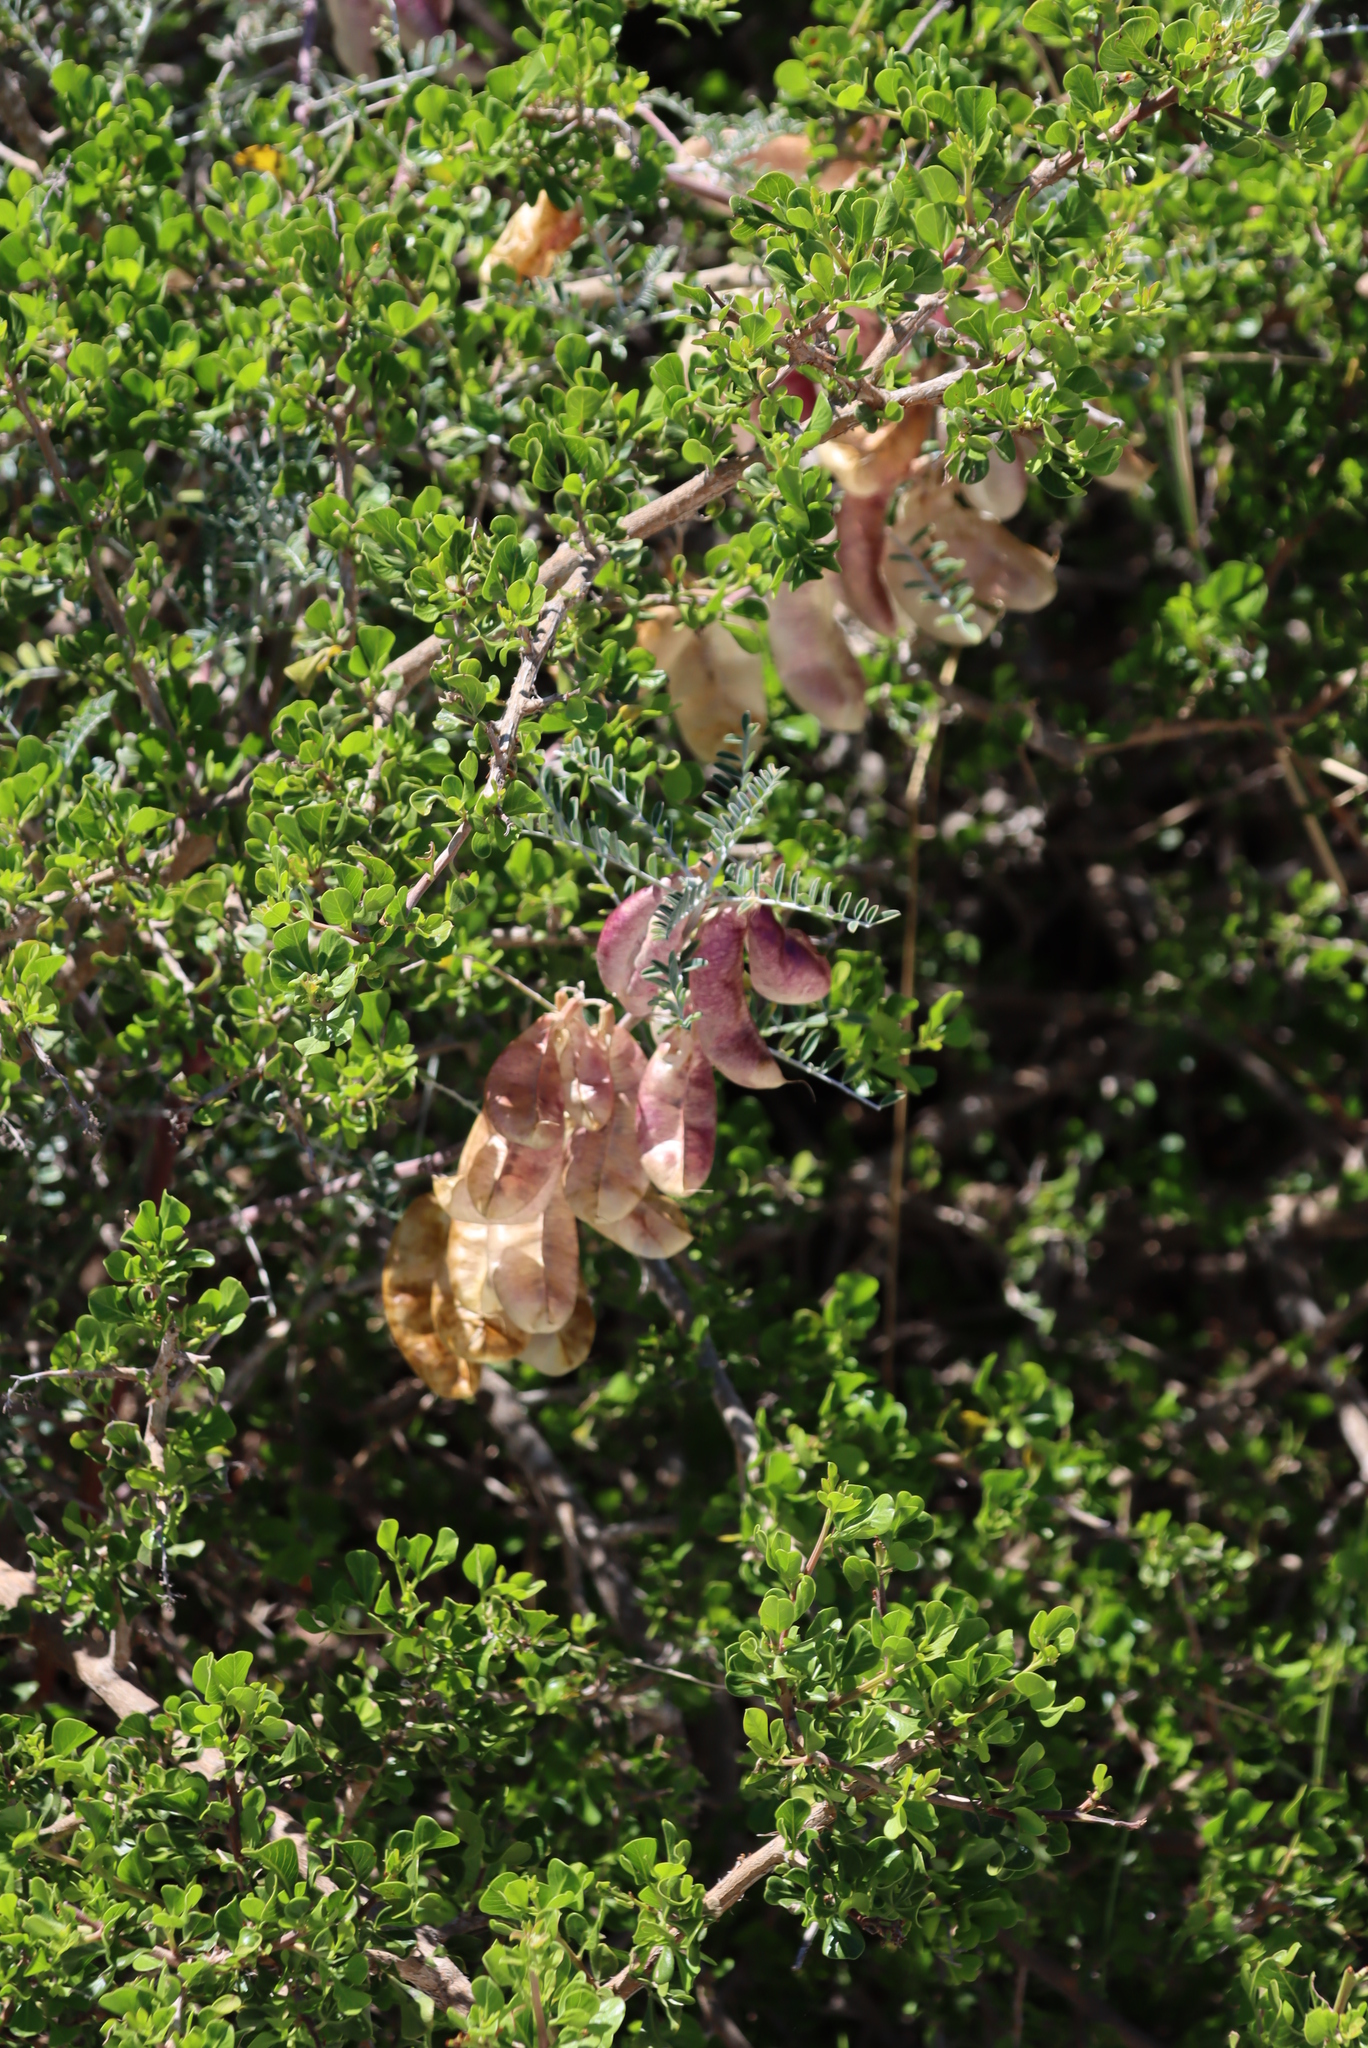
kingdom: Plantae
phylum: Tracheophyta
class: Magnoliopsida
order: Fabales
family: Fabaceae
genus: Lessertia
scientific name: Lessertia frutescens
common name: Balloon-pea
